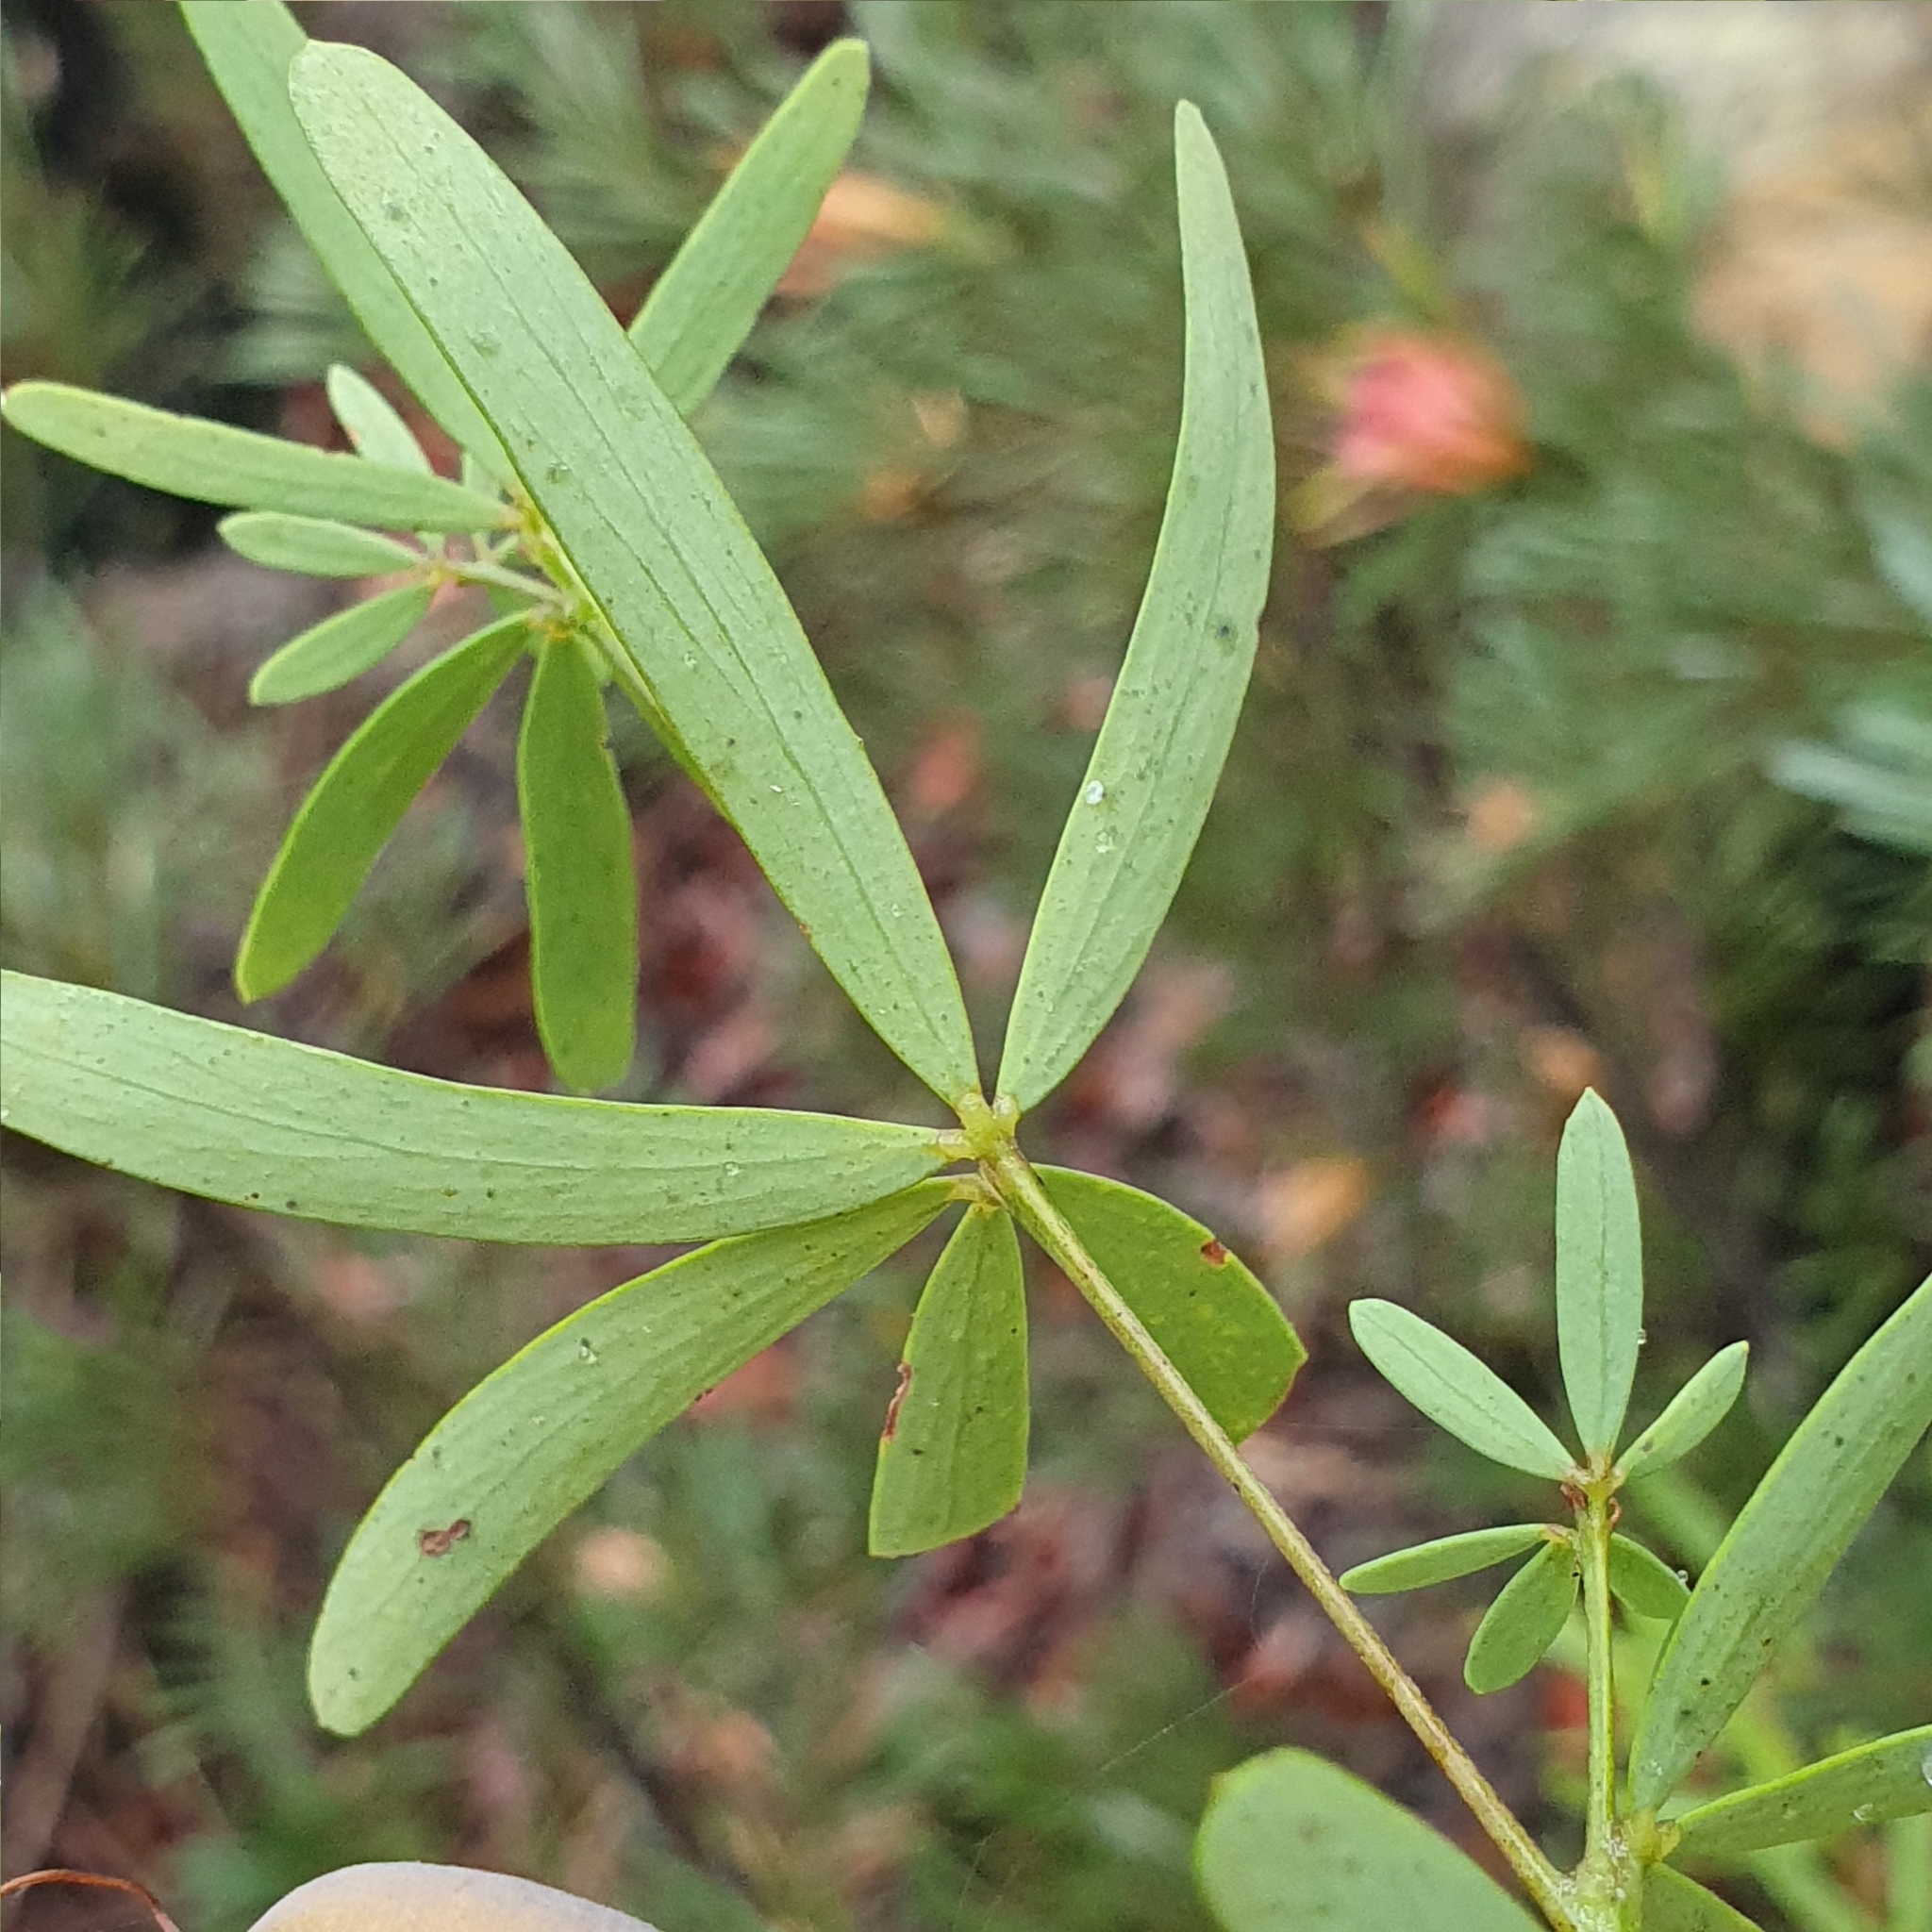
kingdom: Plantae
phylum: Tracheophyta
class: Magnoliopsida
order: Fabales
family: Fabaceae
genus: Gompholobium
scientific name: Gompholobium latifolium
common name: Broadleaf wedge-pea
